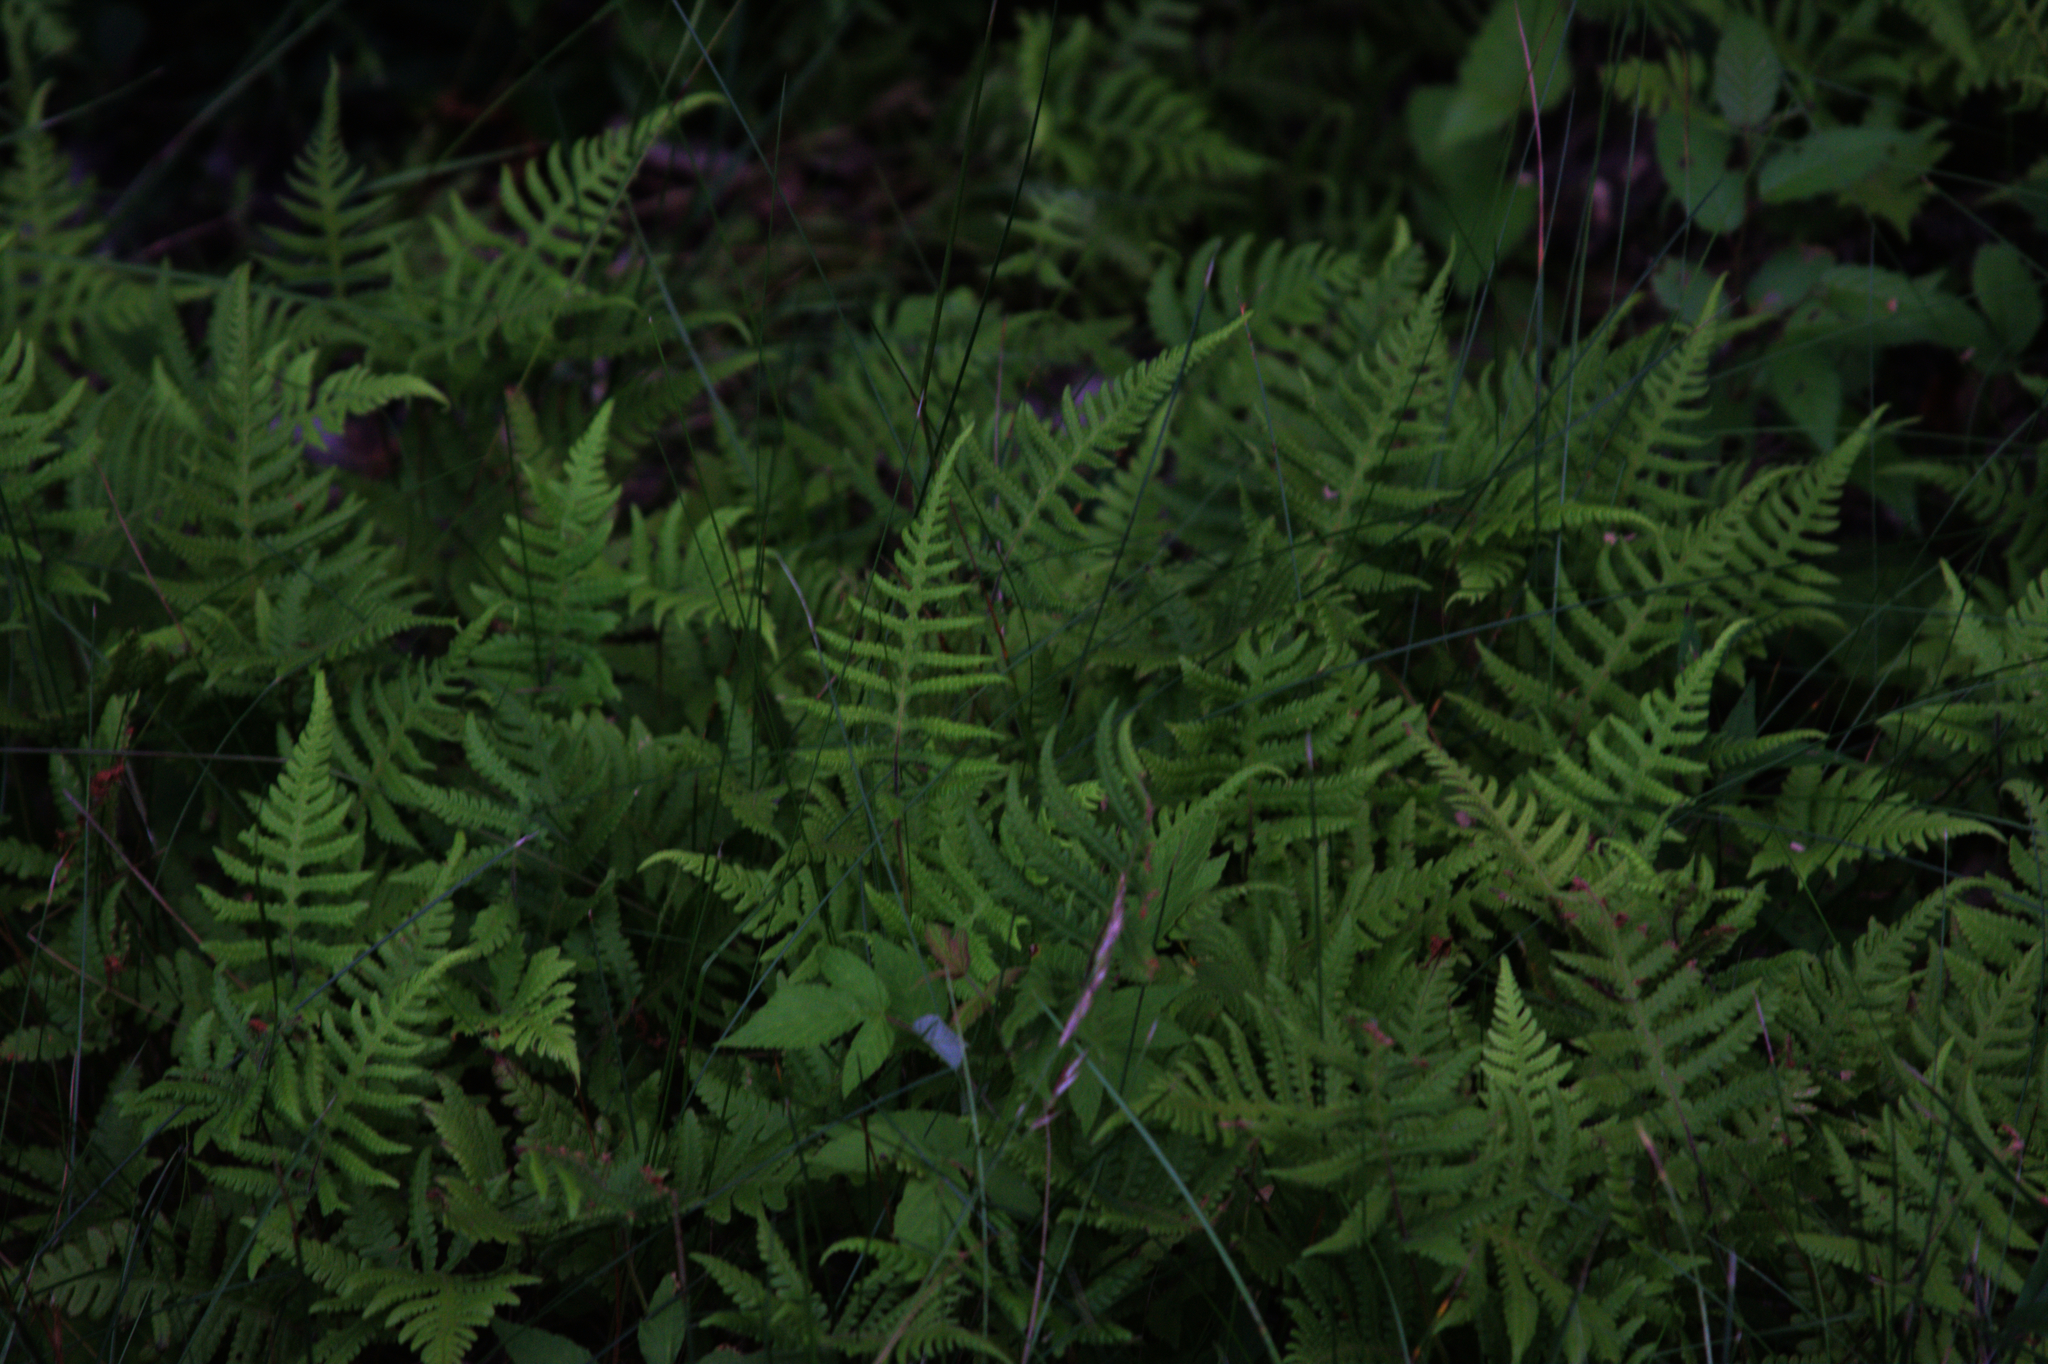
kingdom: Plantae
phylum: Tracheophyta
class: Polypodiopsida
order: Polypodiales
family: Thelypteridaceae
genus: Phegopteris
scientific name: Phegopteris connectilis
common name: Beech fern
